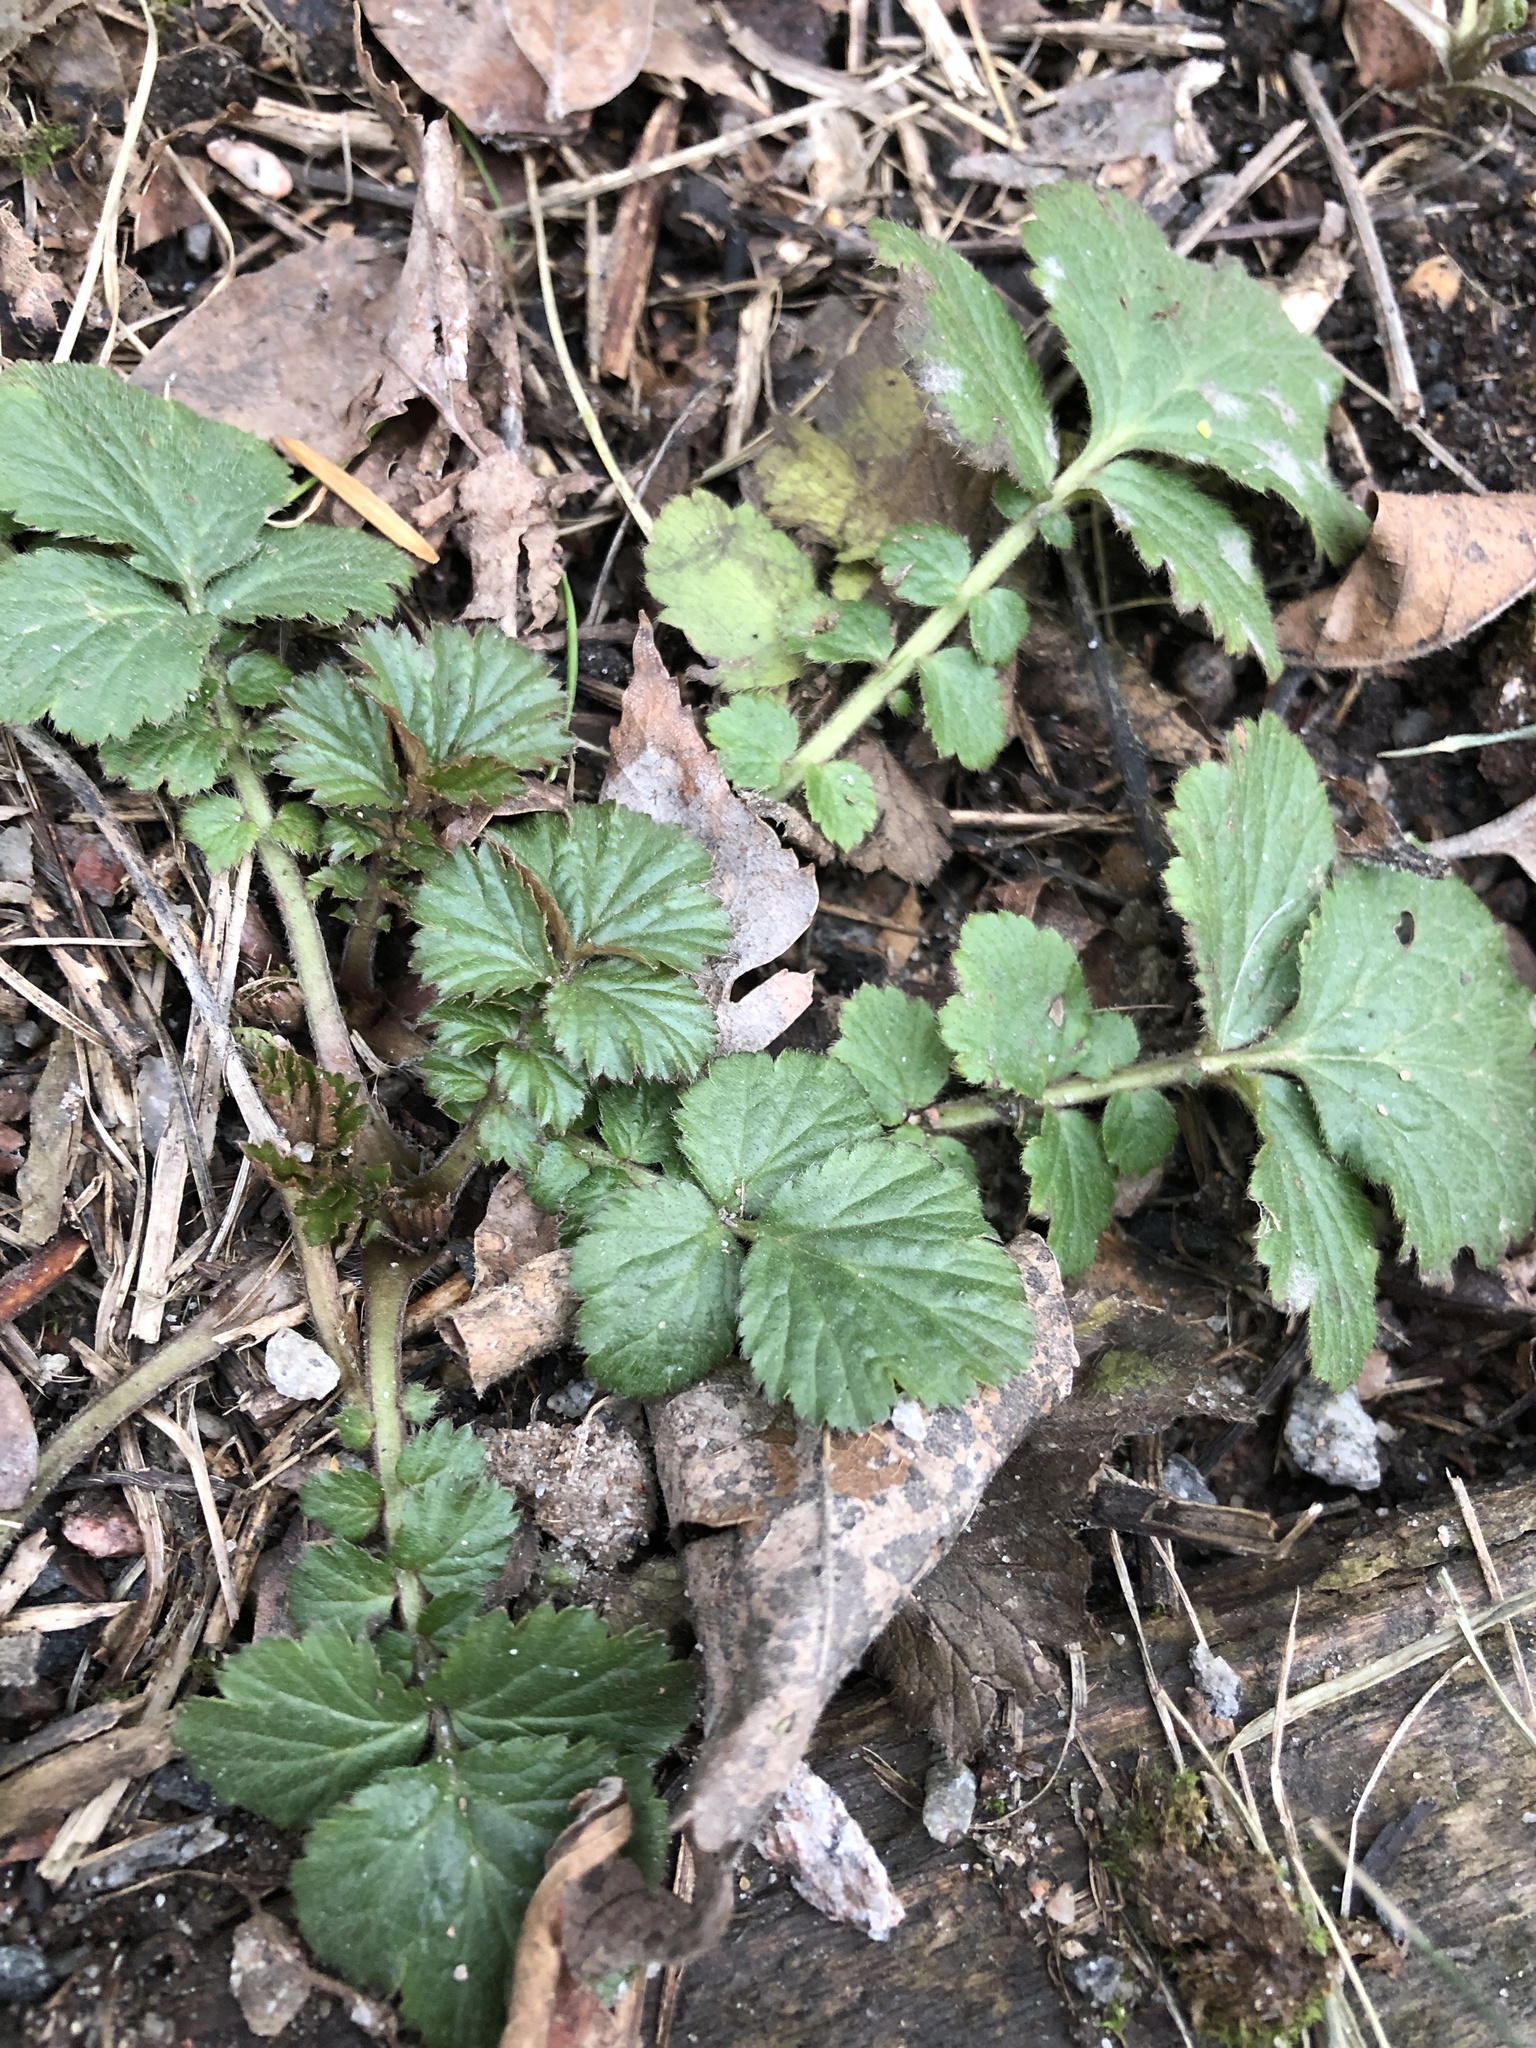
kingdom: Plantae
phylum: Tracheophyta
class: Magnoliopsida
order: Rosales
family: Rosaceae
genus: Geum
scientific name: Geum
